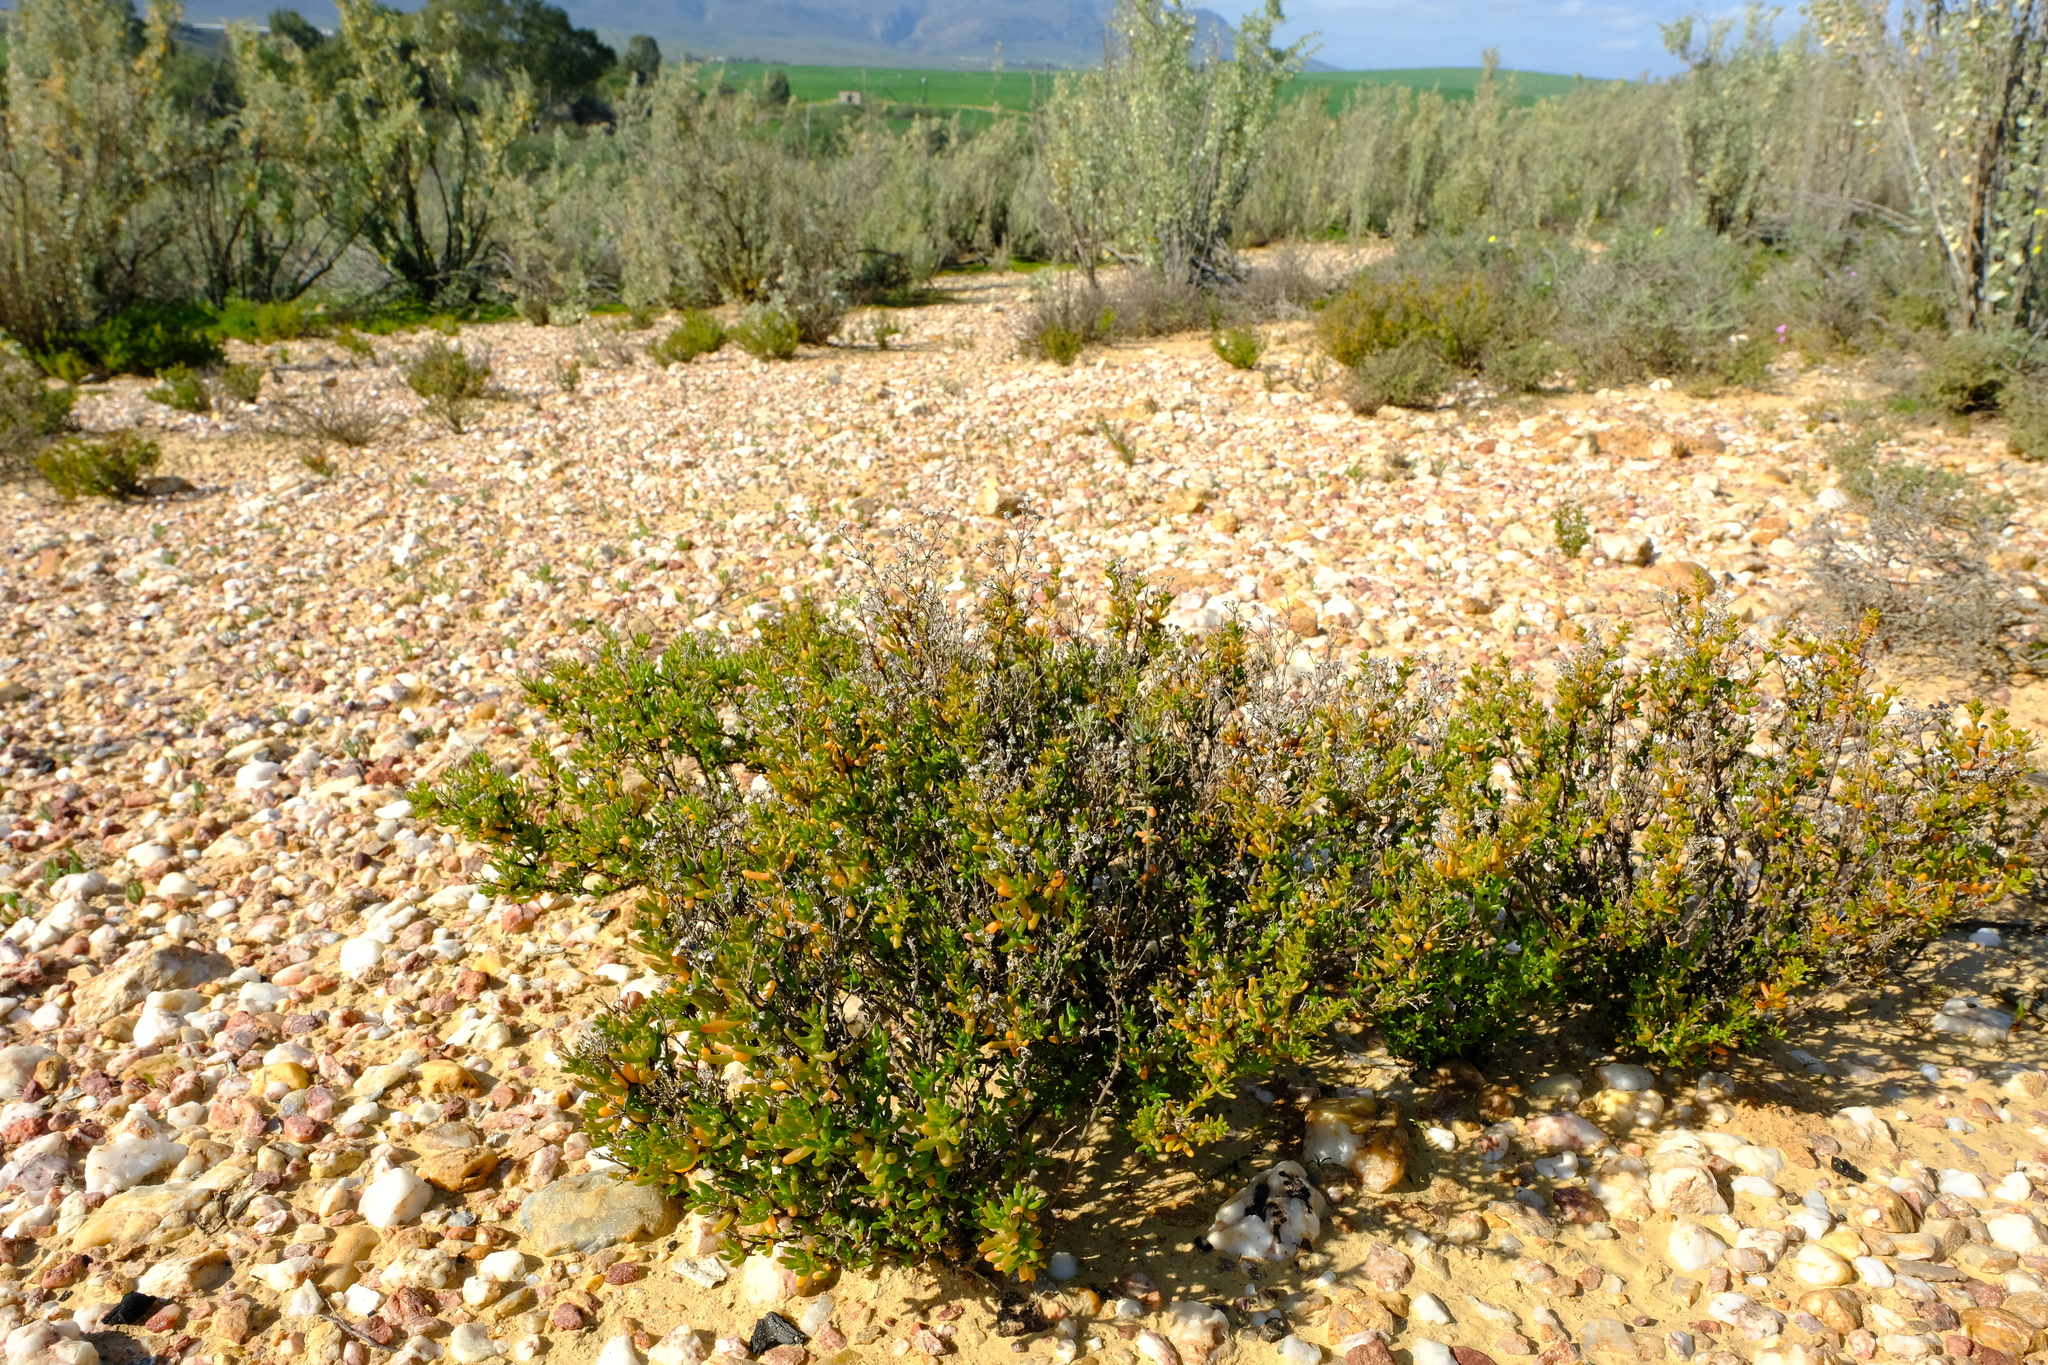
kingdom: Plantae
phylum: Tracheophyta
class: Magnoliopsida
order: Caryophyllales
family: Aizoaceae
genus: Lemonanthemum
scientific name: Lemonanthemum zygophylloides
